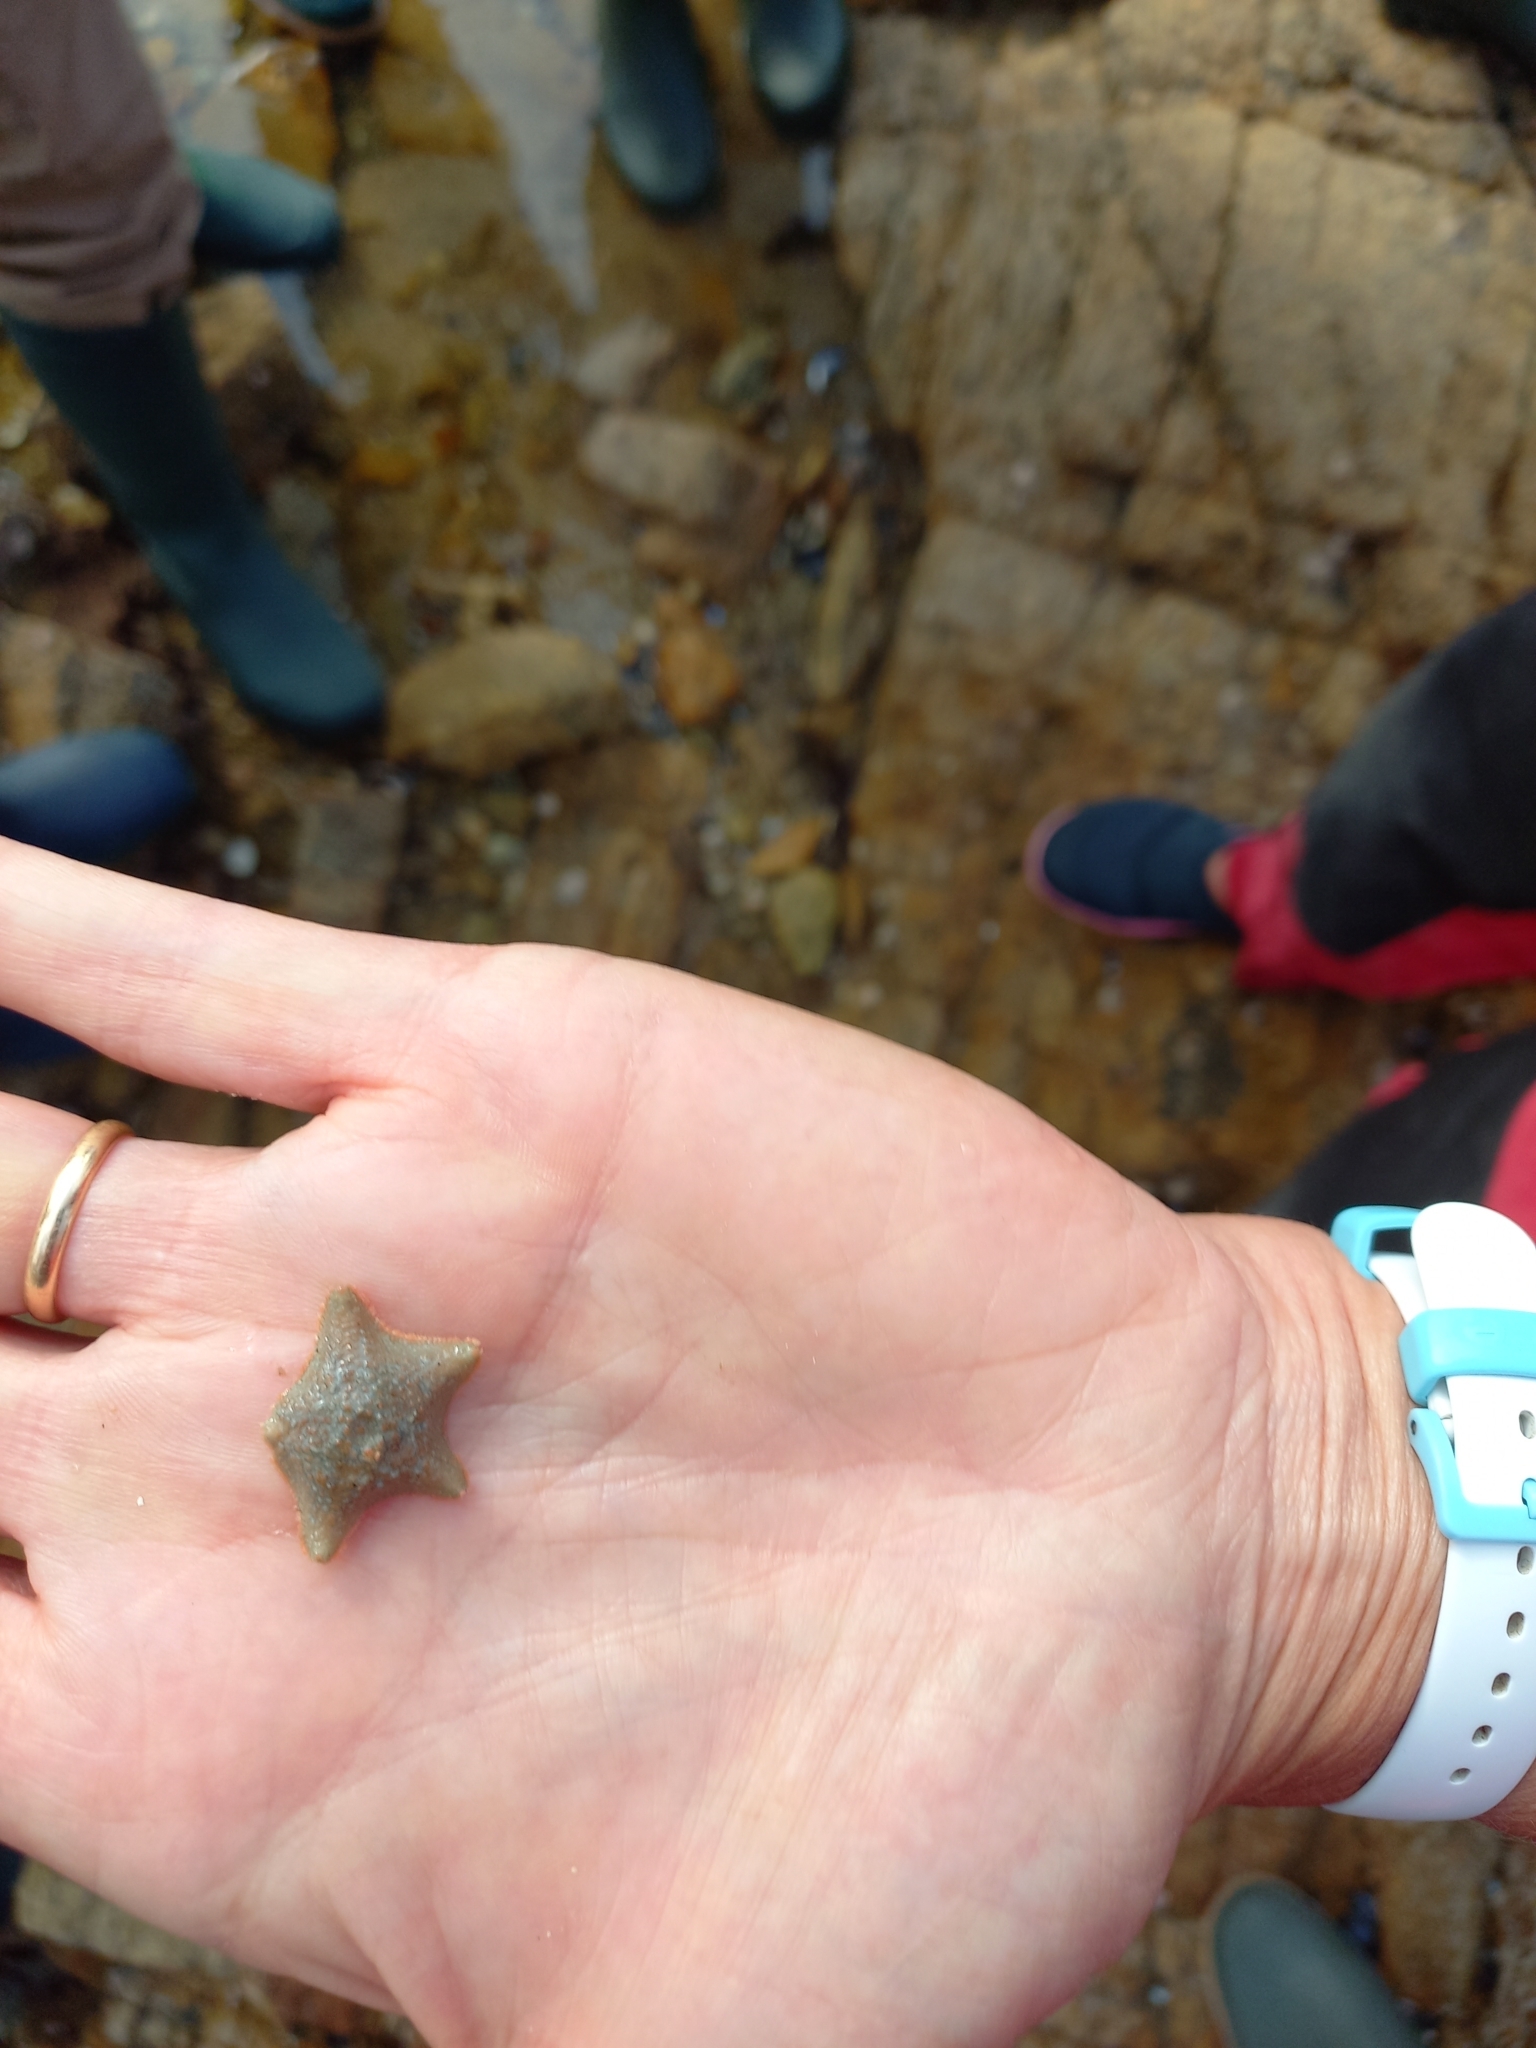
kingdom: Animalia
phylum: Echinodermata
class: Asteroidea
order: Valvatida
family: Asterinidae
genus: Asterina
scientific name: Asterina gibbosa
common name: Cushion star
